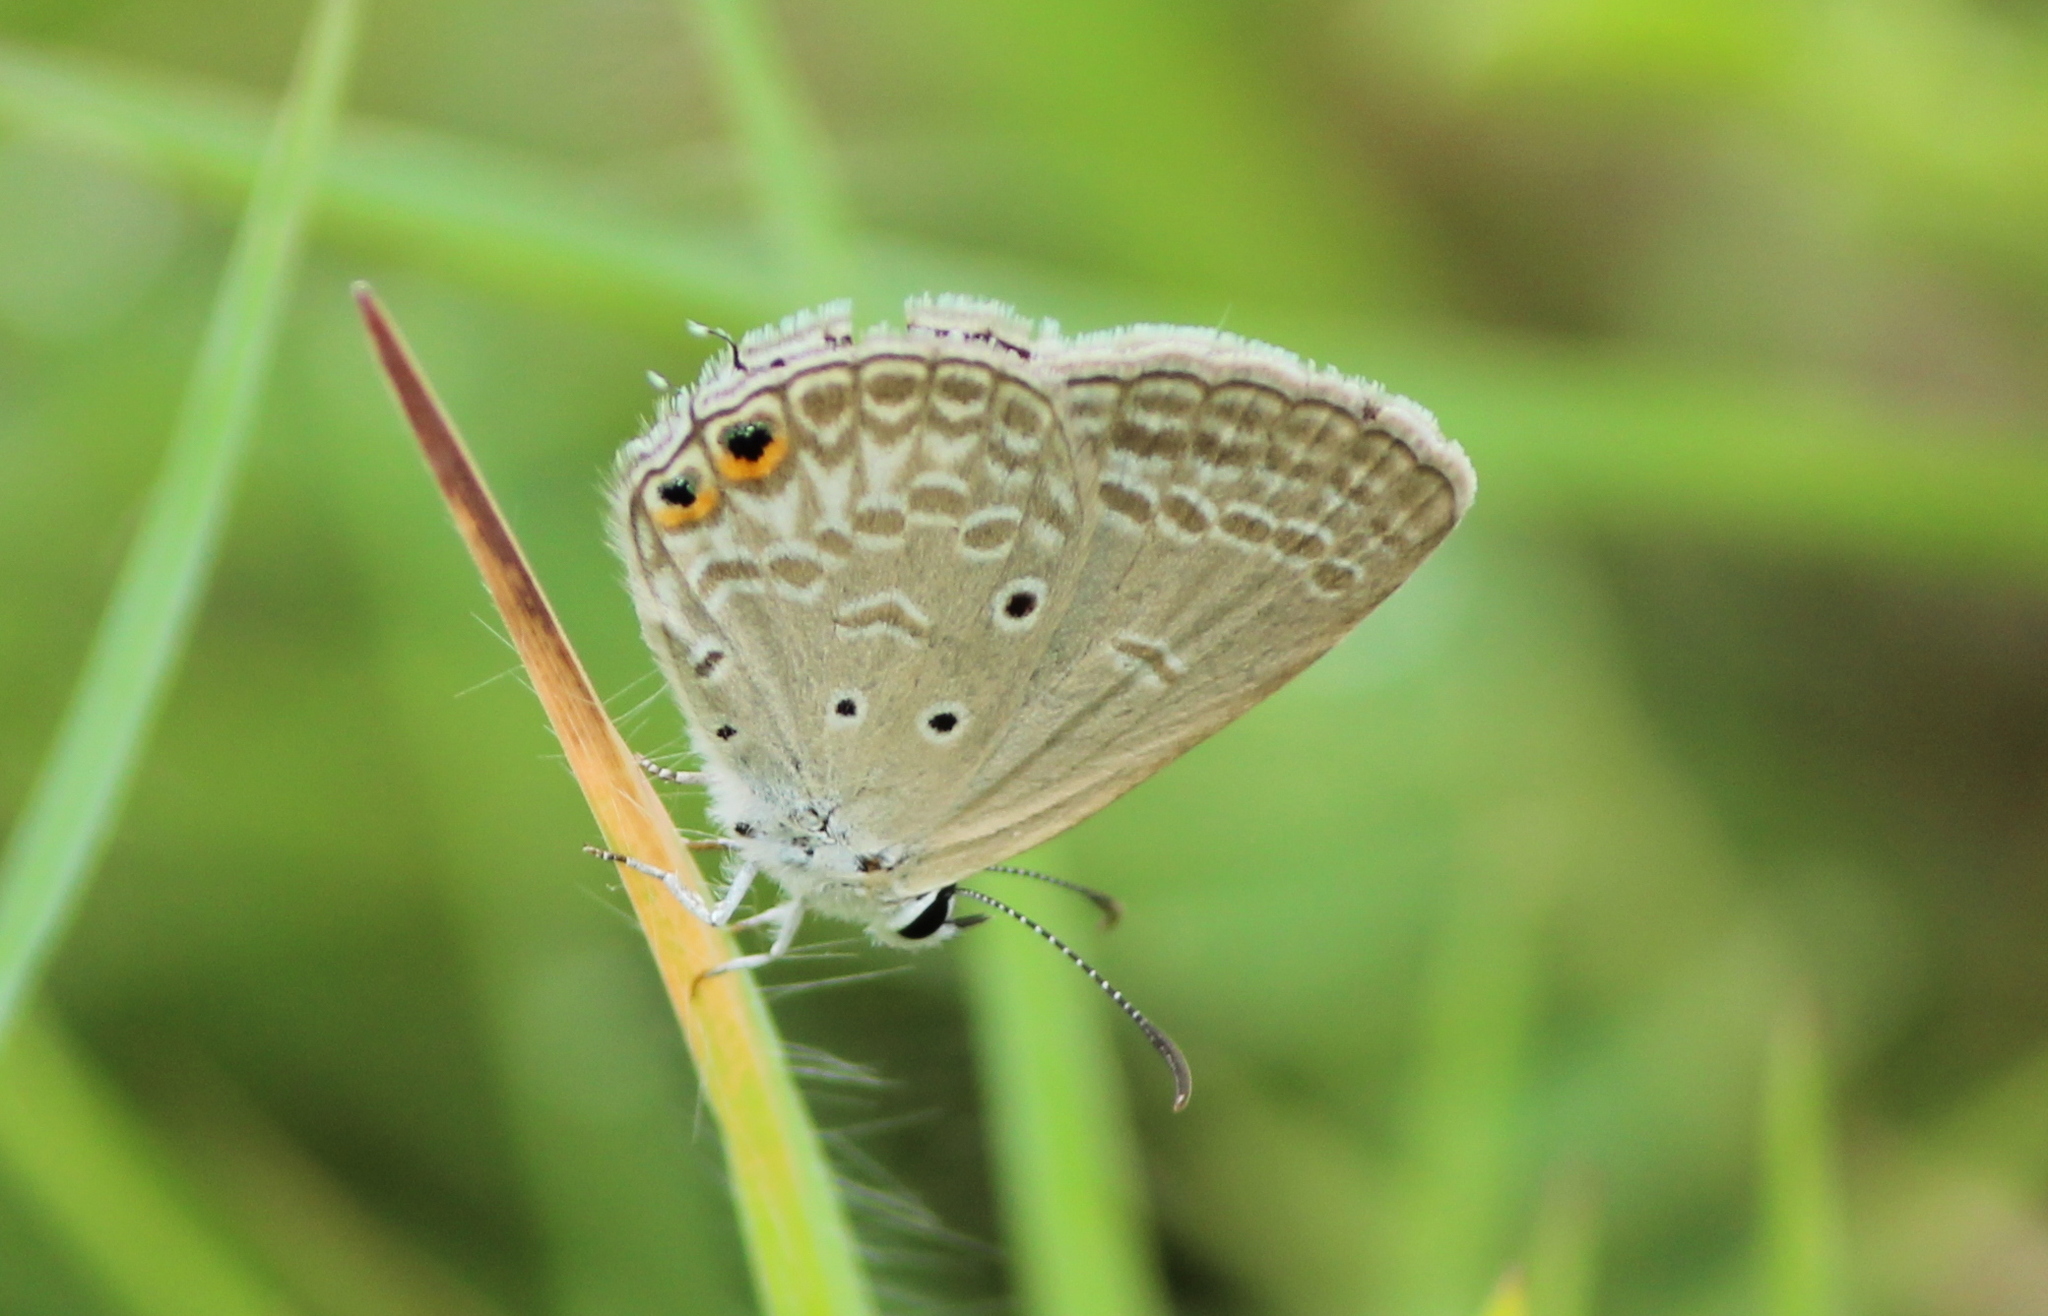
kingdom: Animalia
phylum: Arthropoda
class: Insecta
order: Lepidoptera
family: Lycaenidae
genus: Euchrysops
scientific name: Euchrysops cnejus
